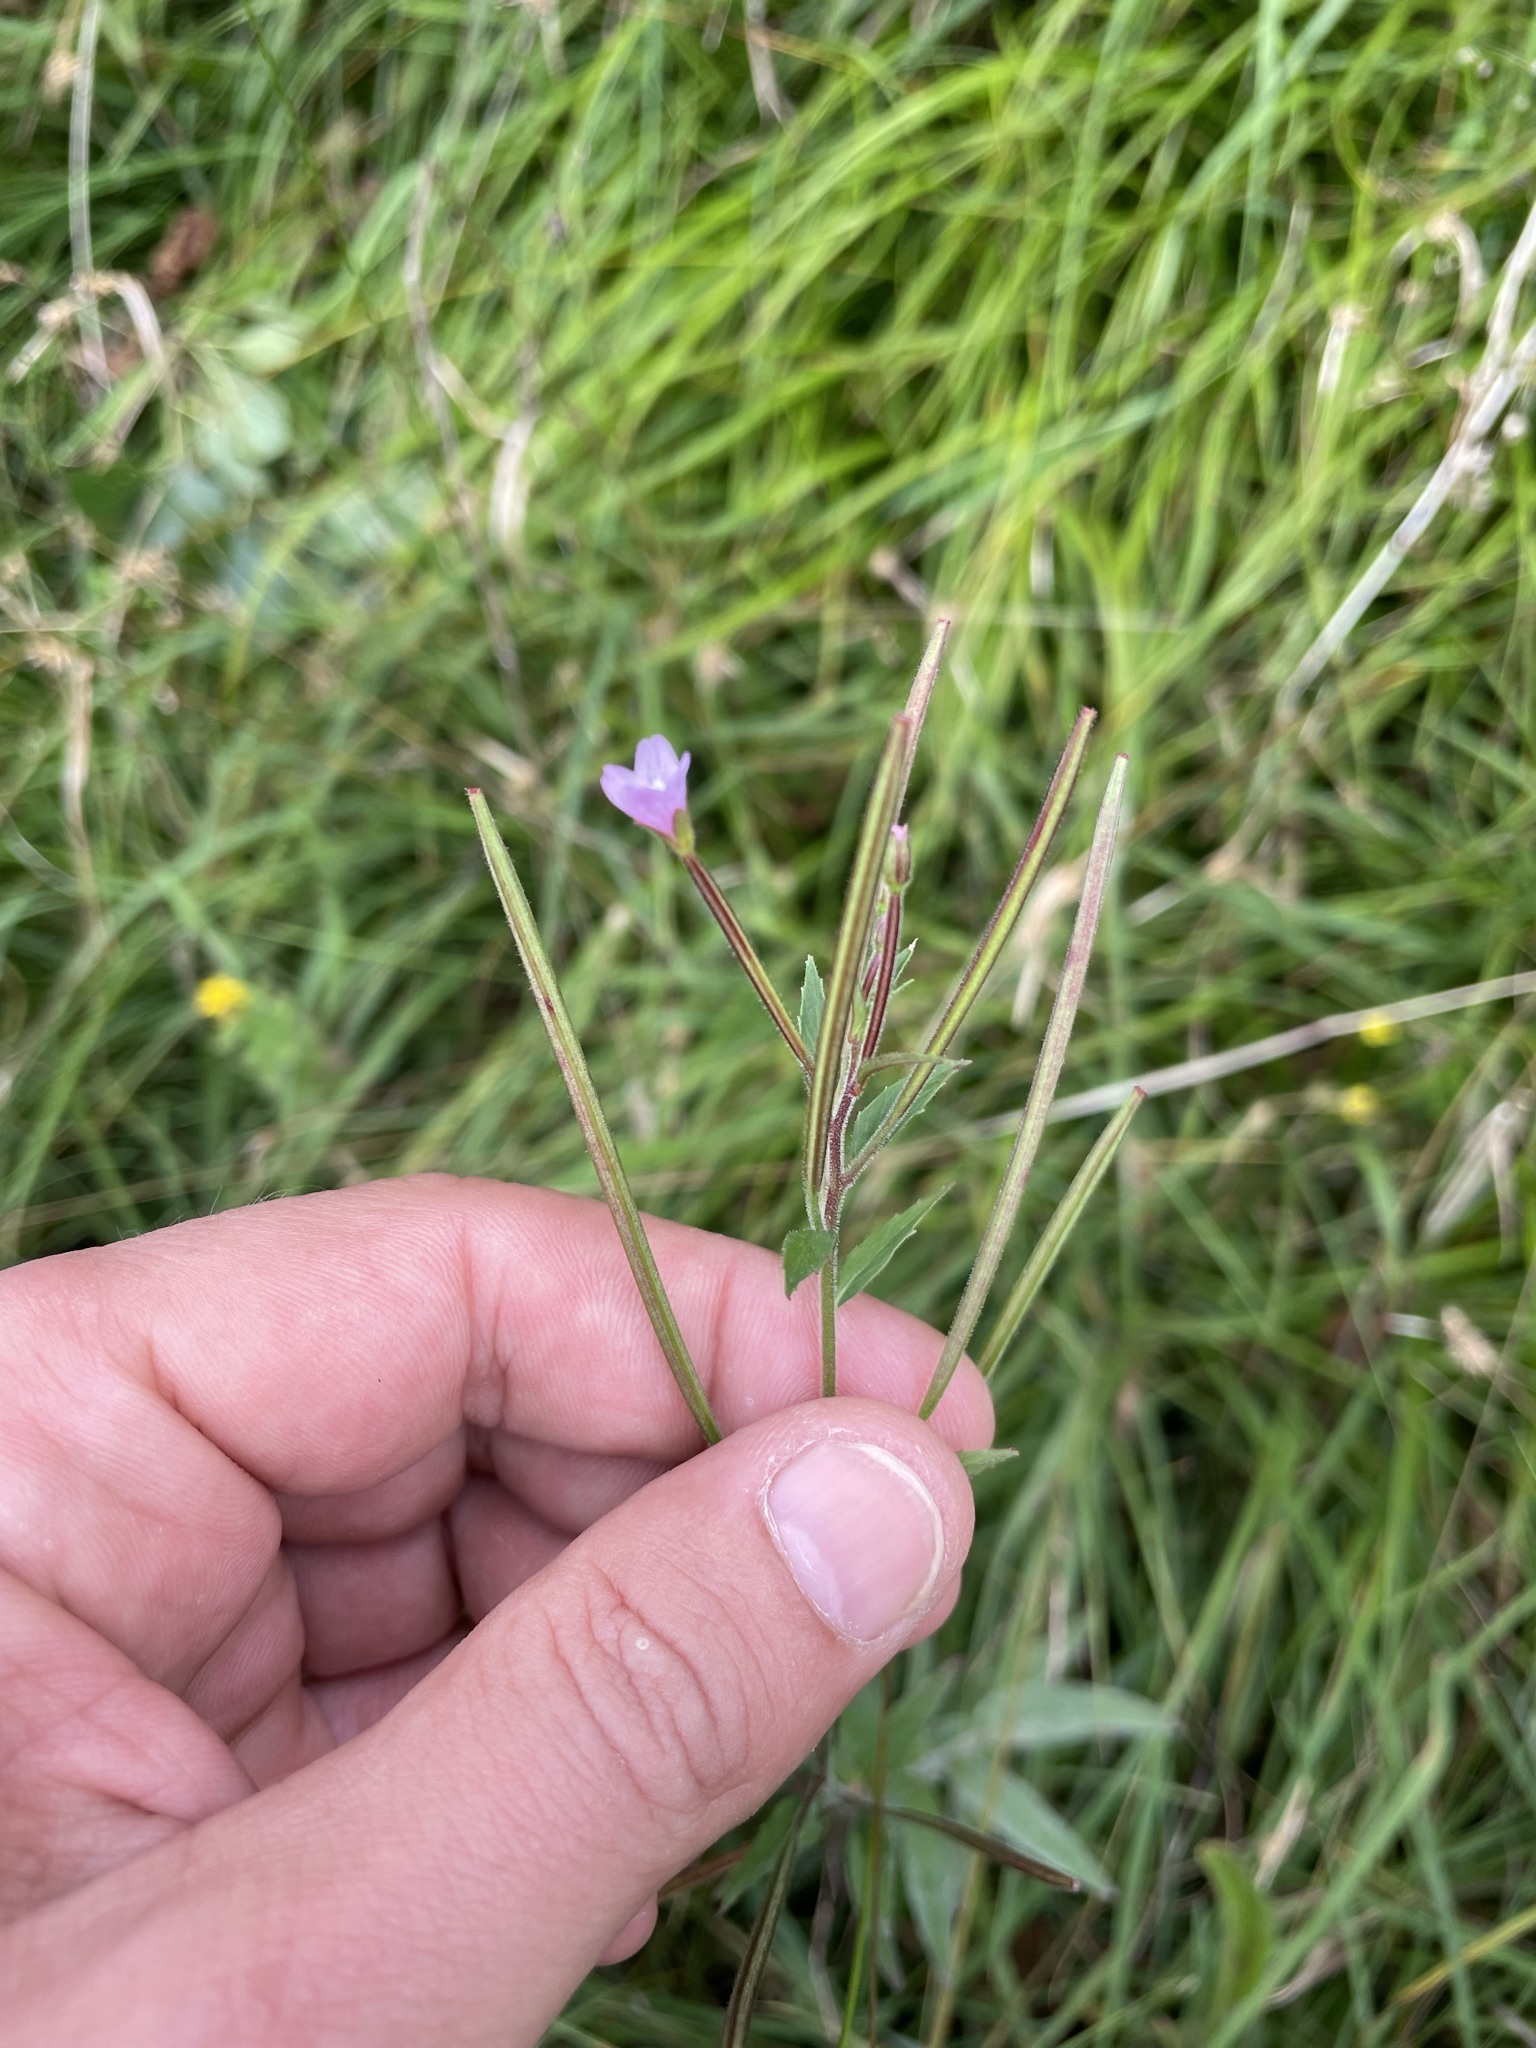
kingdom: Plantae
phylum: Tracheophyta
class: Magnoliopsida
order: Myrtales
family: Onagraceae
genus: Epilobium
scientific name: Epilobium parviflorum
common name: Hoary willowherb
